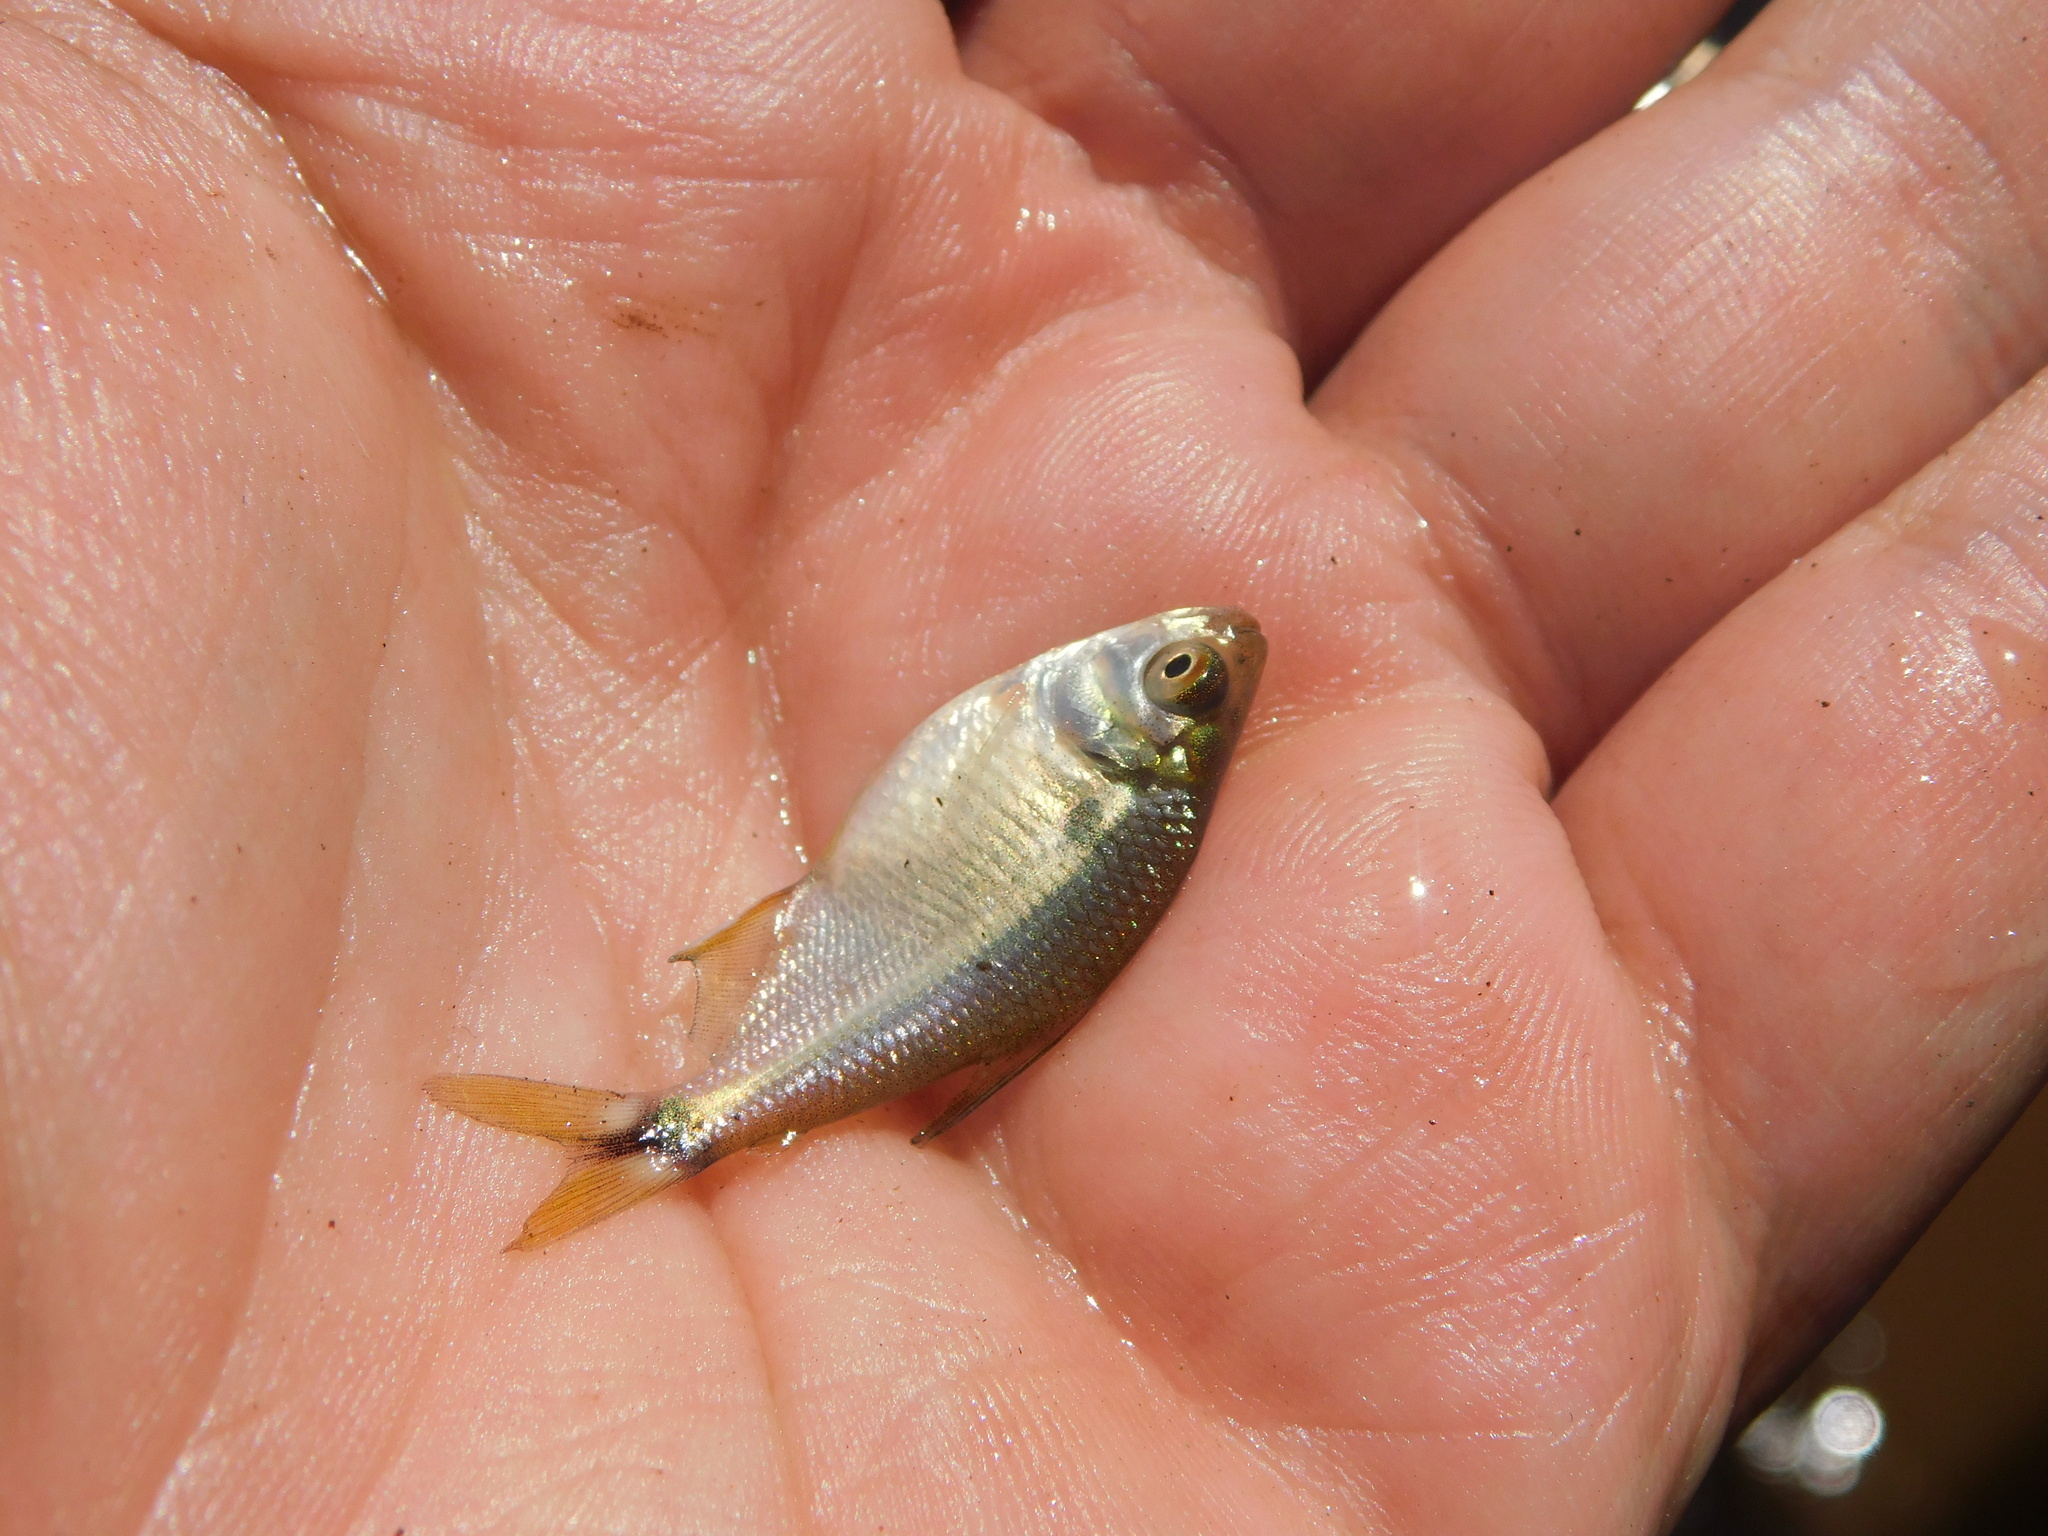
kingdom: Animalia
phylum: Chordata
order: Characiformes
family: Characidae
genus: Astyanax
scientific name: Astyanax lacustris
